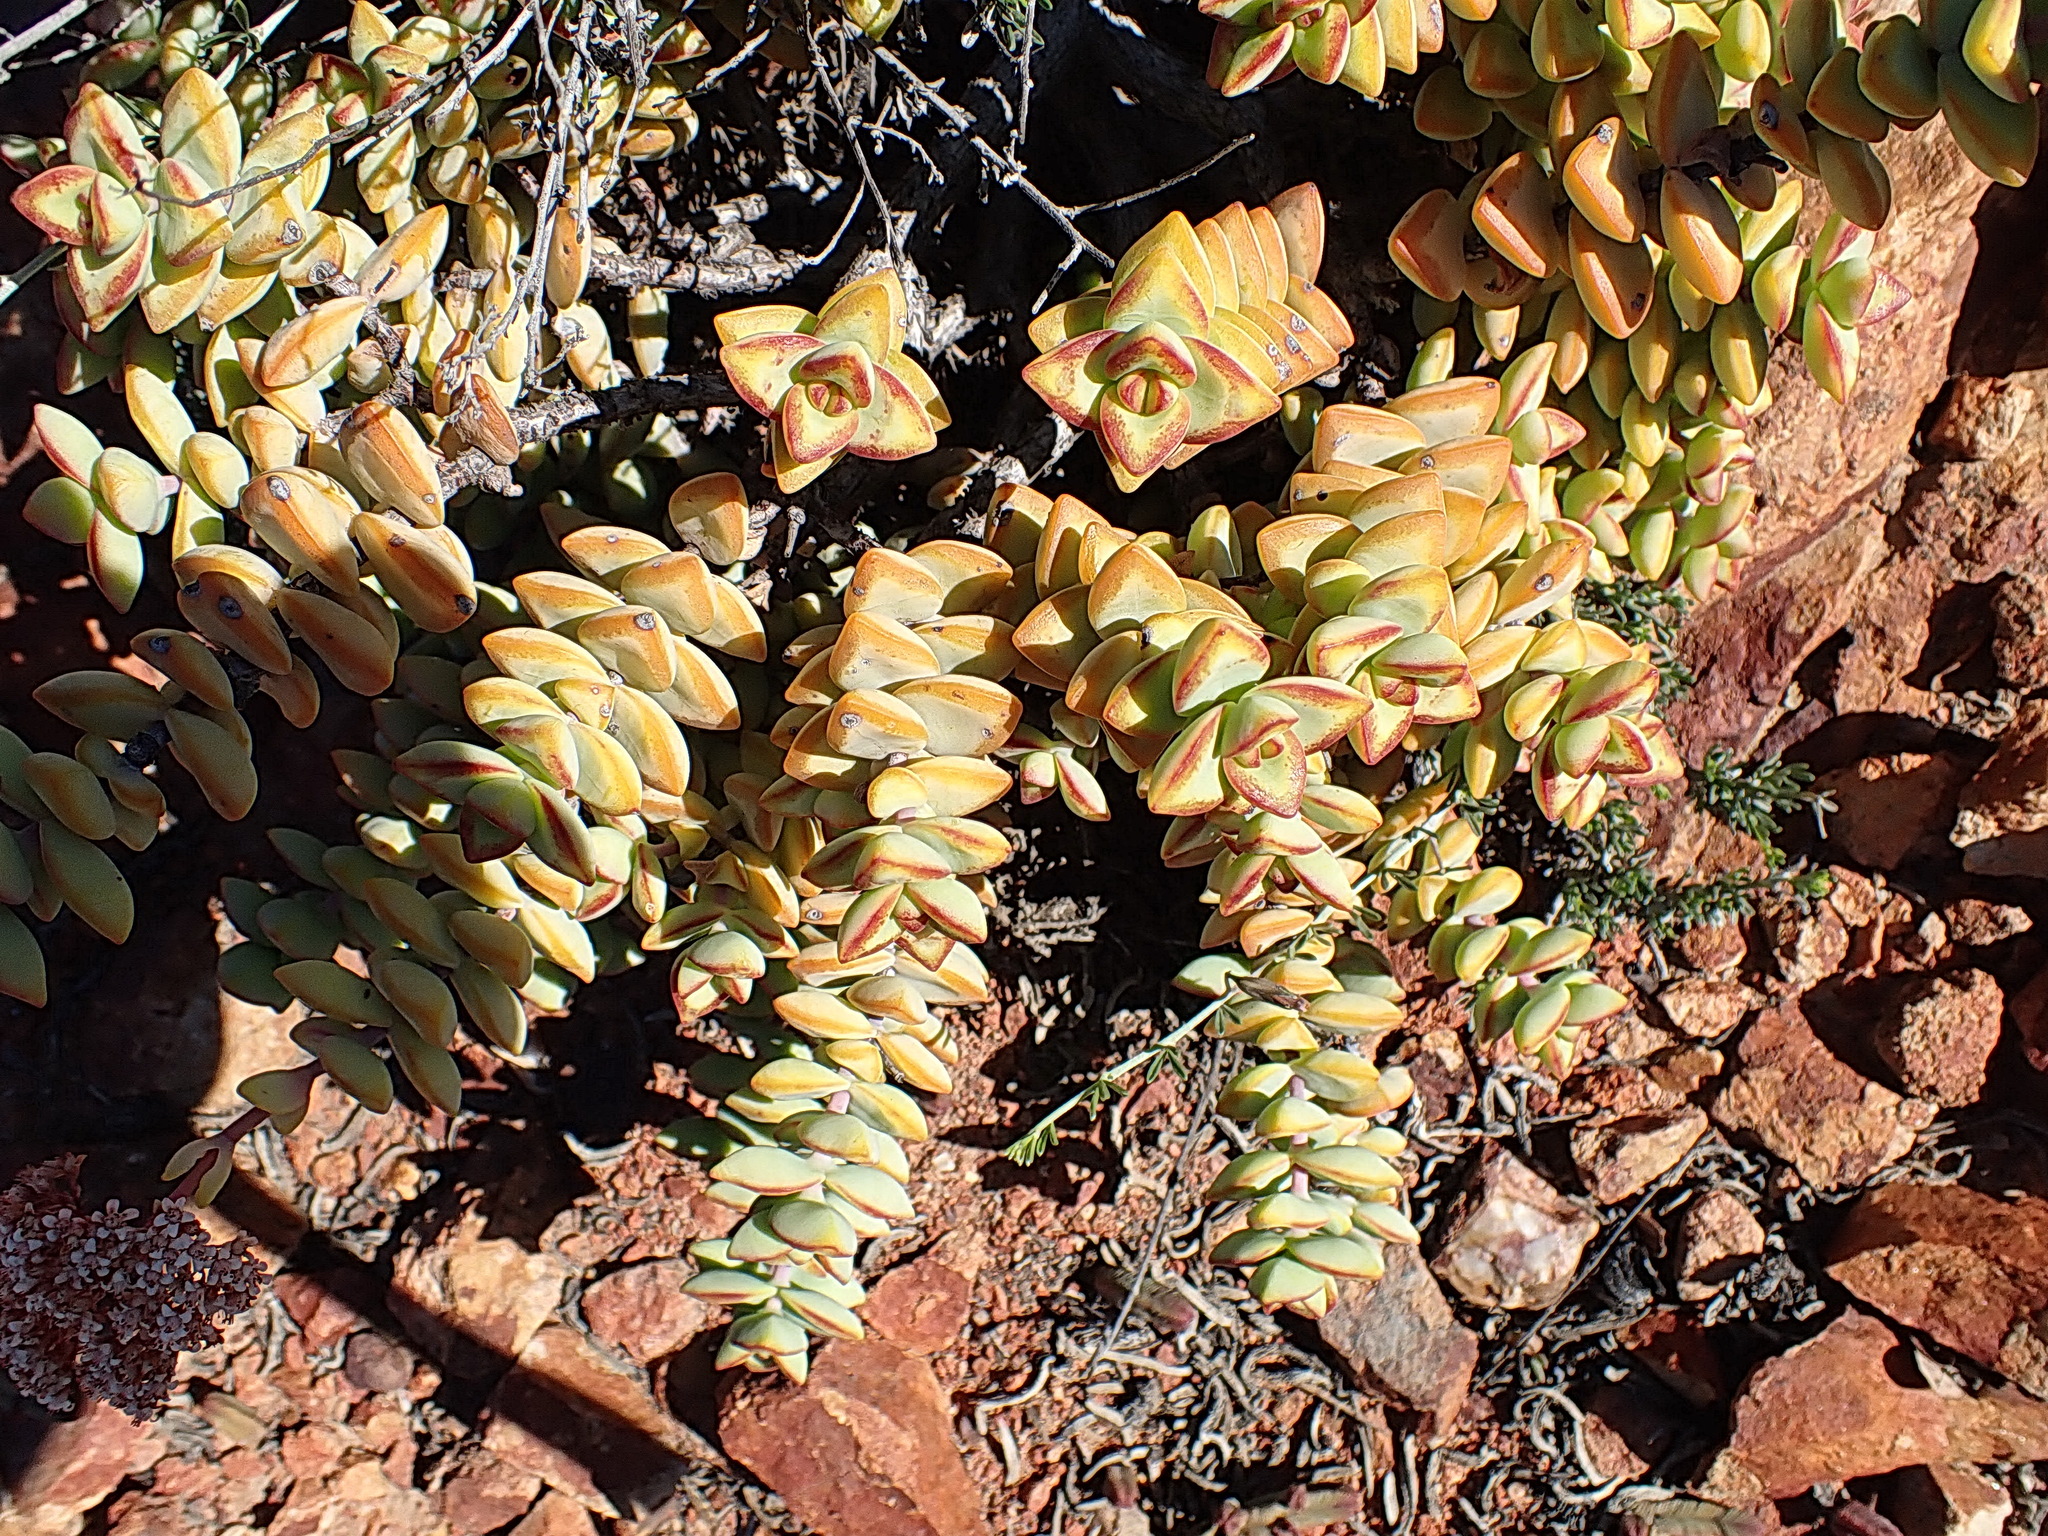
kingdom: Plantae
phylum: Tracheophyta
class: Magnoliopsida
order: Saxifragales
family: Crassulaceae
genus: Crassula
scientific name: Crassula rupestris
